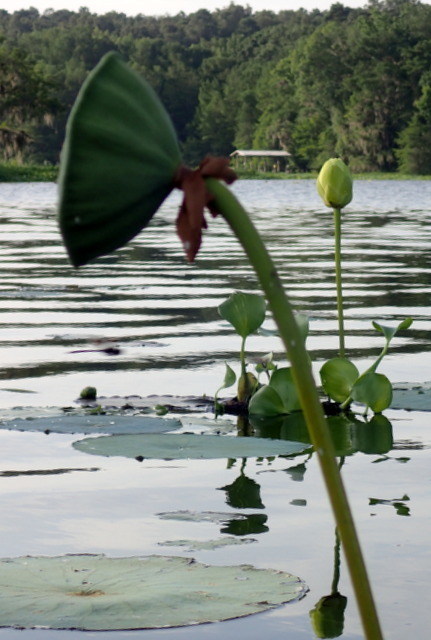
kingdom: Plantae
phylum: Tracheophyta
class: Magnoliopsida
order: Proteales
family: Nelumbonaceae
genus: Nelumbo
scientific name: Nelumbo lutea
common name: American lotus
